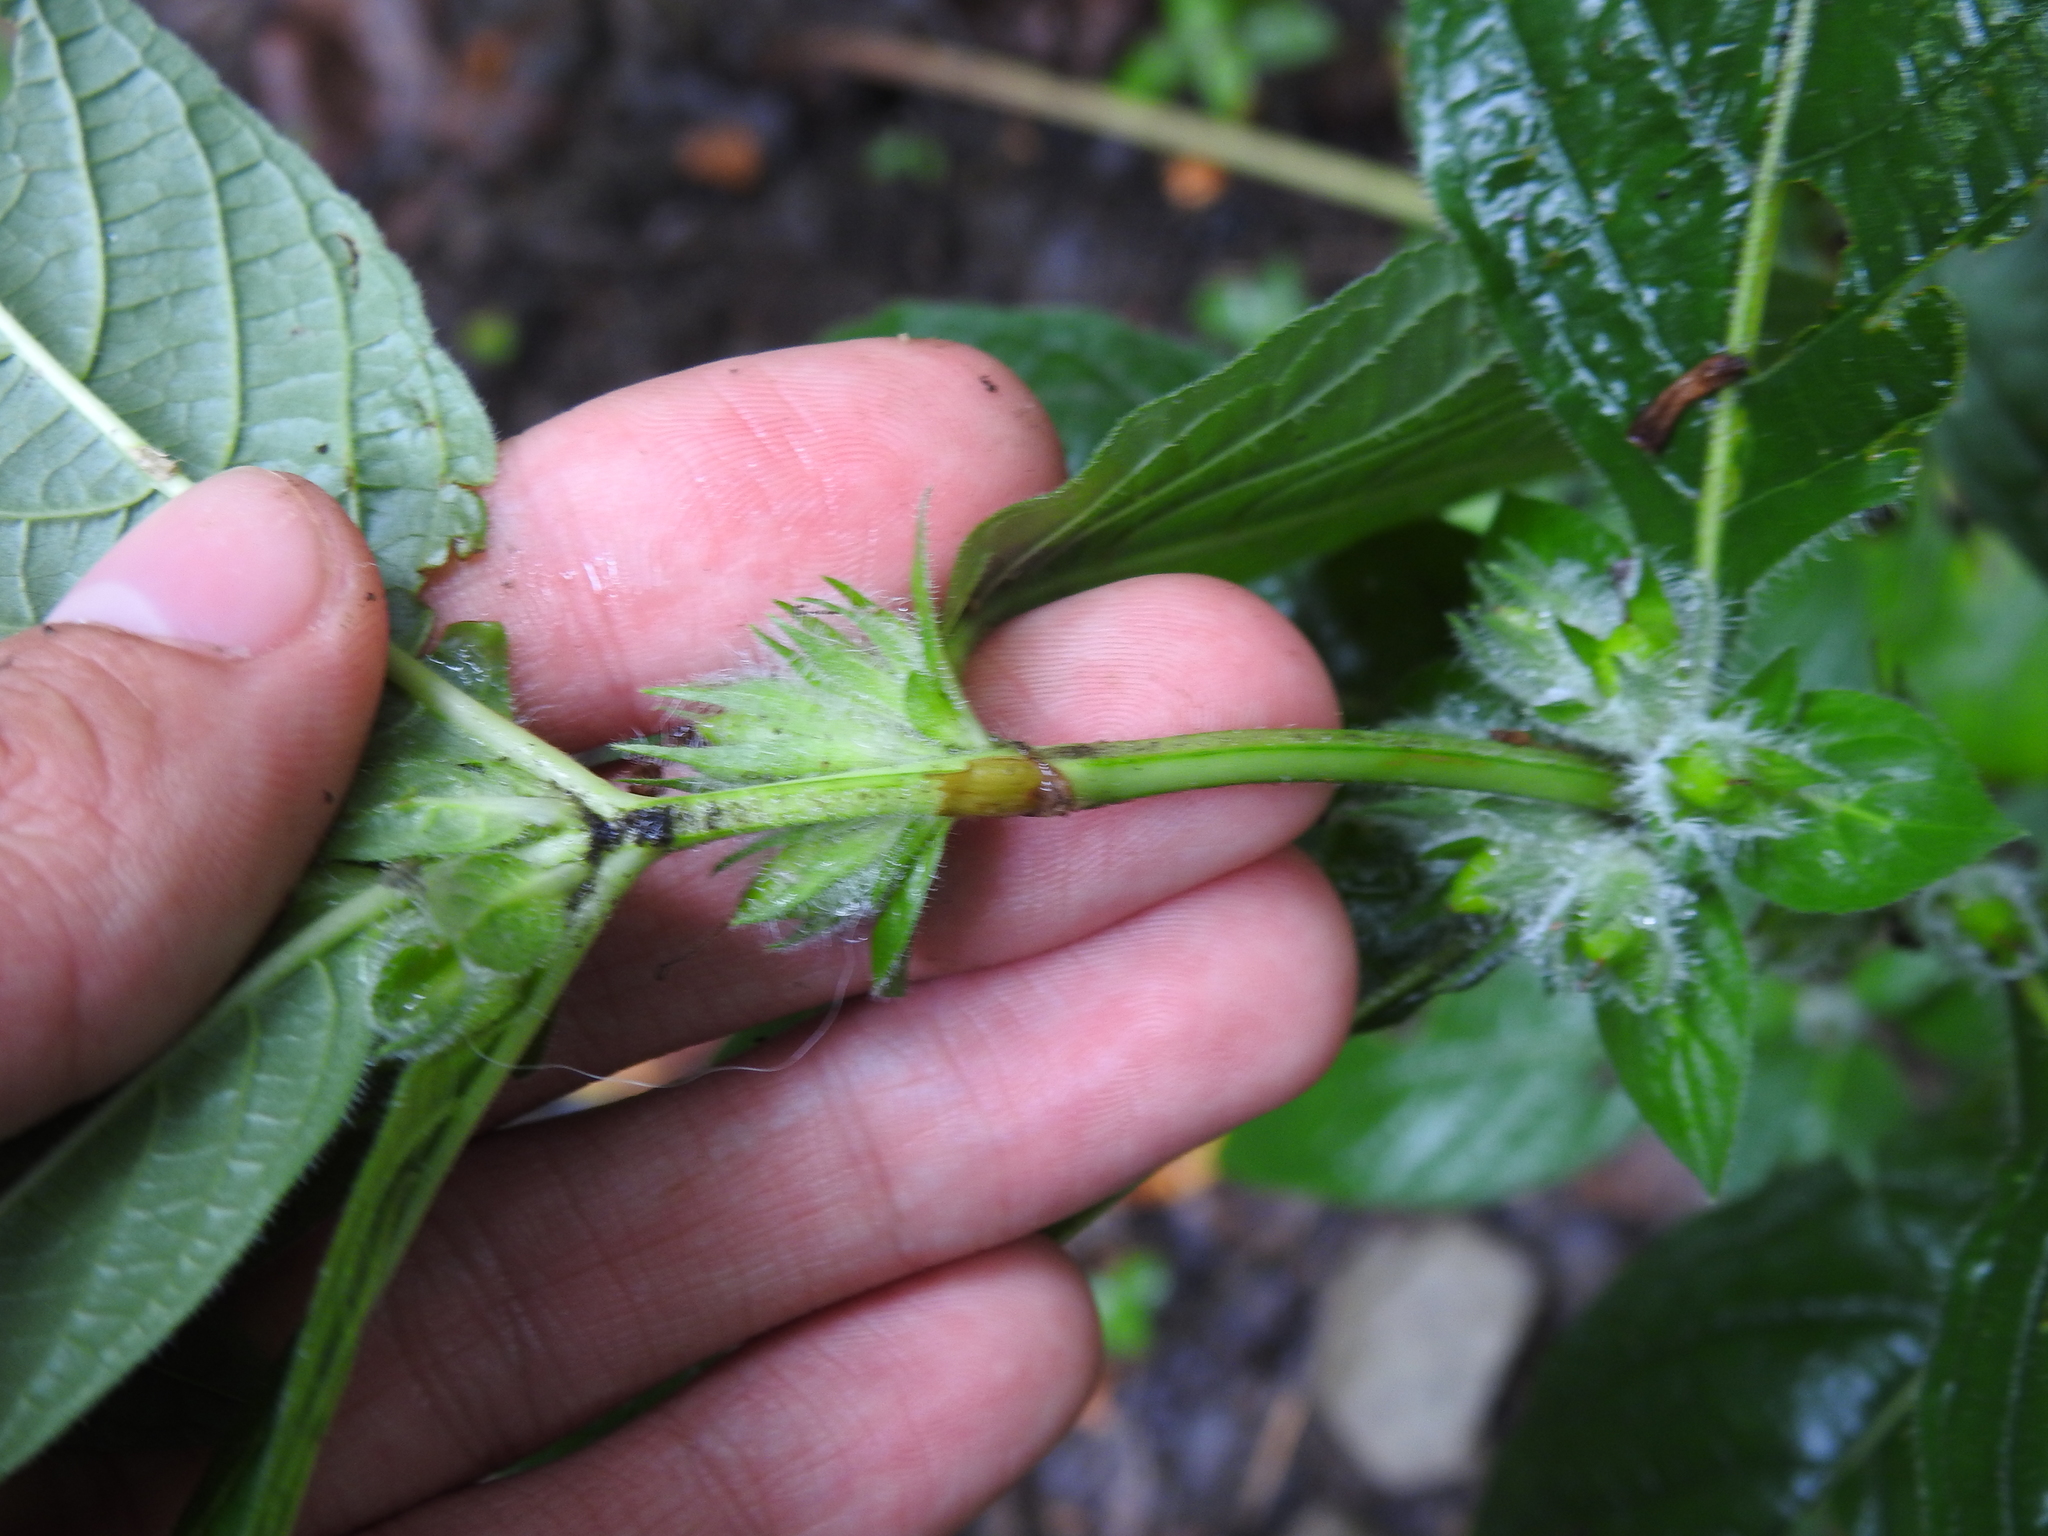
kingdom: Plantae
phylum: Tracheophyta
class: Magnoliopsida
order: Lamiales
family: Acanthaceae
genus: Ruellia
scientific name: Ruellia strepens
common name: Limestone wild petunia
